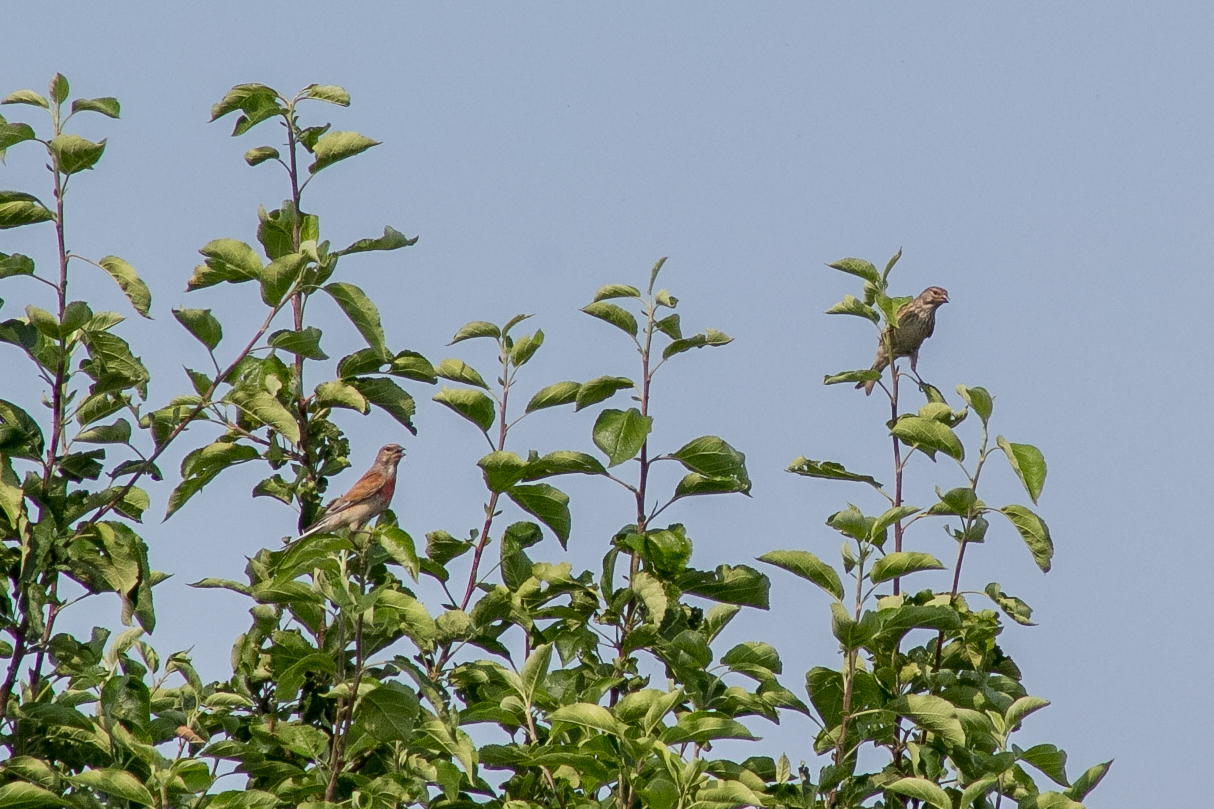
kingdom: Animalia
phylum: Chordata
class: Aves
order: Passeriformes
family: Fringillidae
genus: Linaria
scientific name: Linaria cannabina
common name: Common linnet
